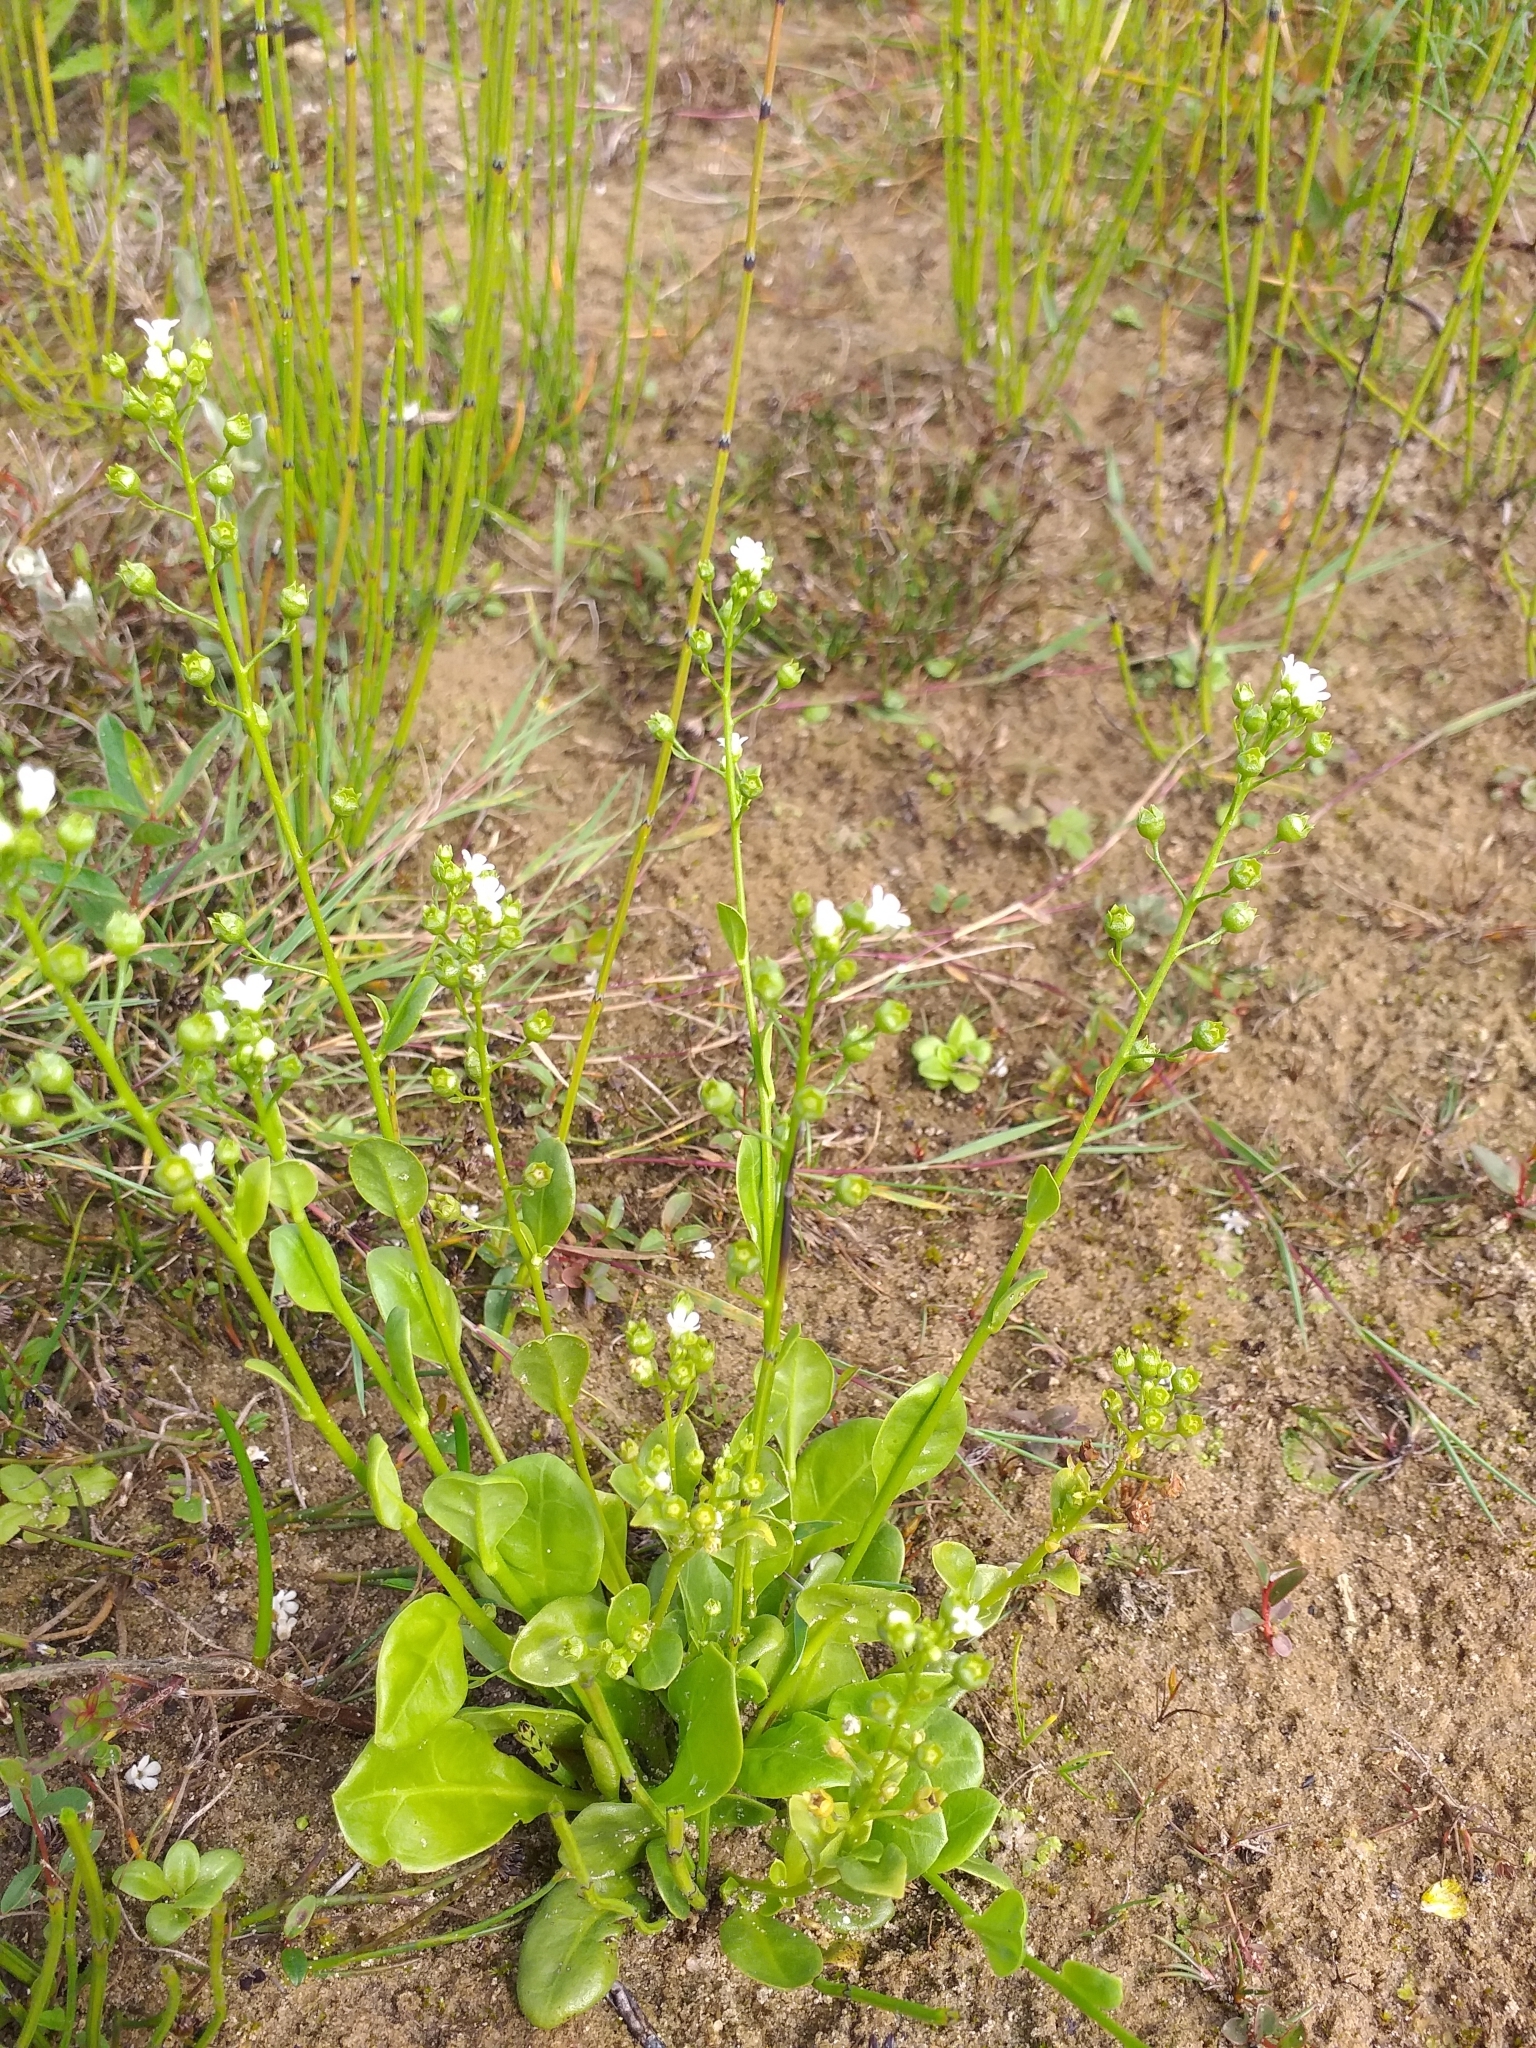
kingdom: Plantae
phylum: Tracheophyta
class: Magnoliopsida
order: Ericales
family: Primulaceae
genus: Samolus
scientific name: Samolus valerandi
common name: Brookweed
